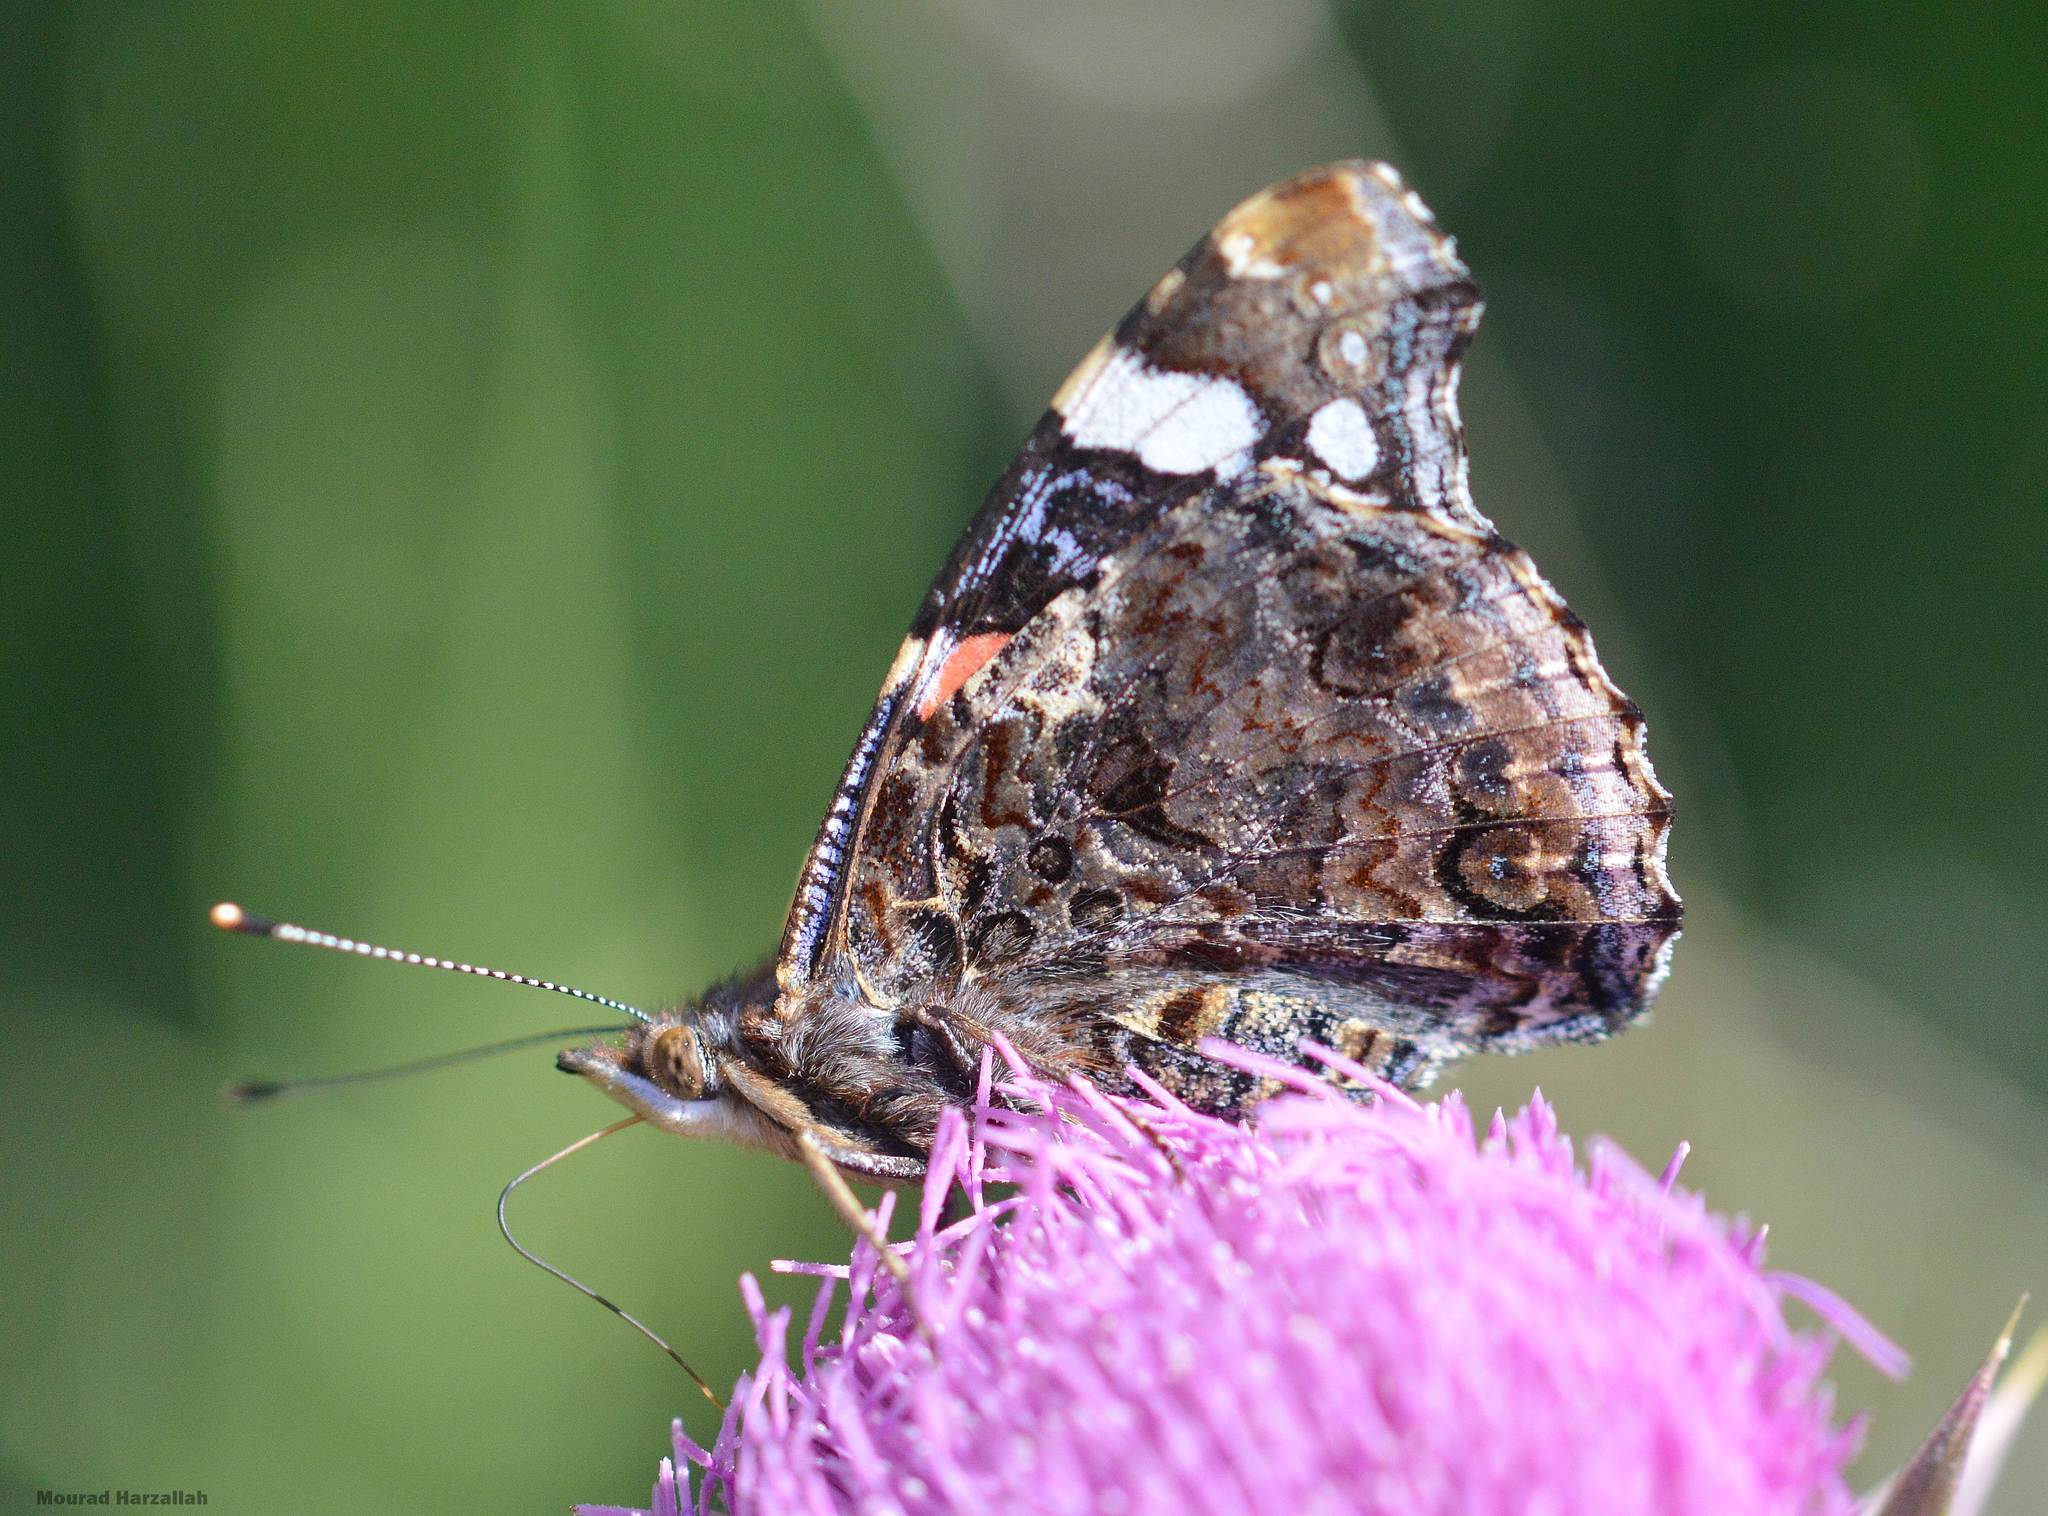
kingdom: Animalia
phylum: Arthropoda
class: Insecta
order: Lepidoptera
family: Nymphalidae
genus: Vanessa
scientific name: Vanessa atalanta
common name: Red admiral
